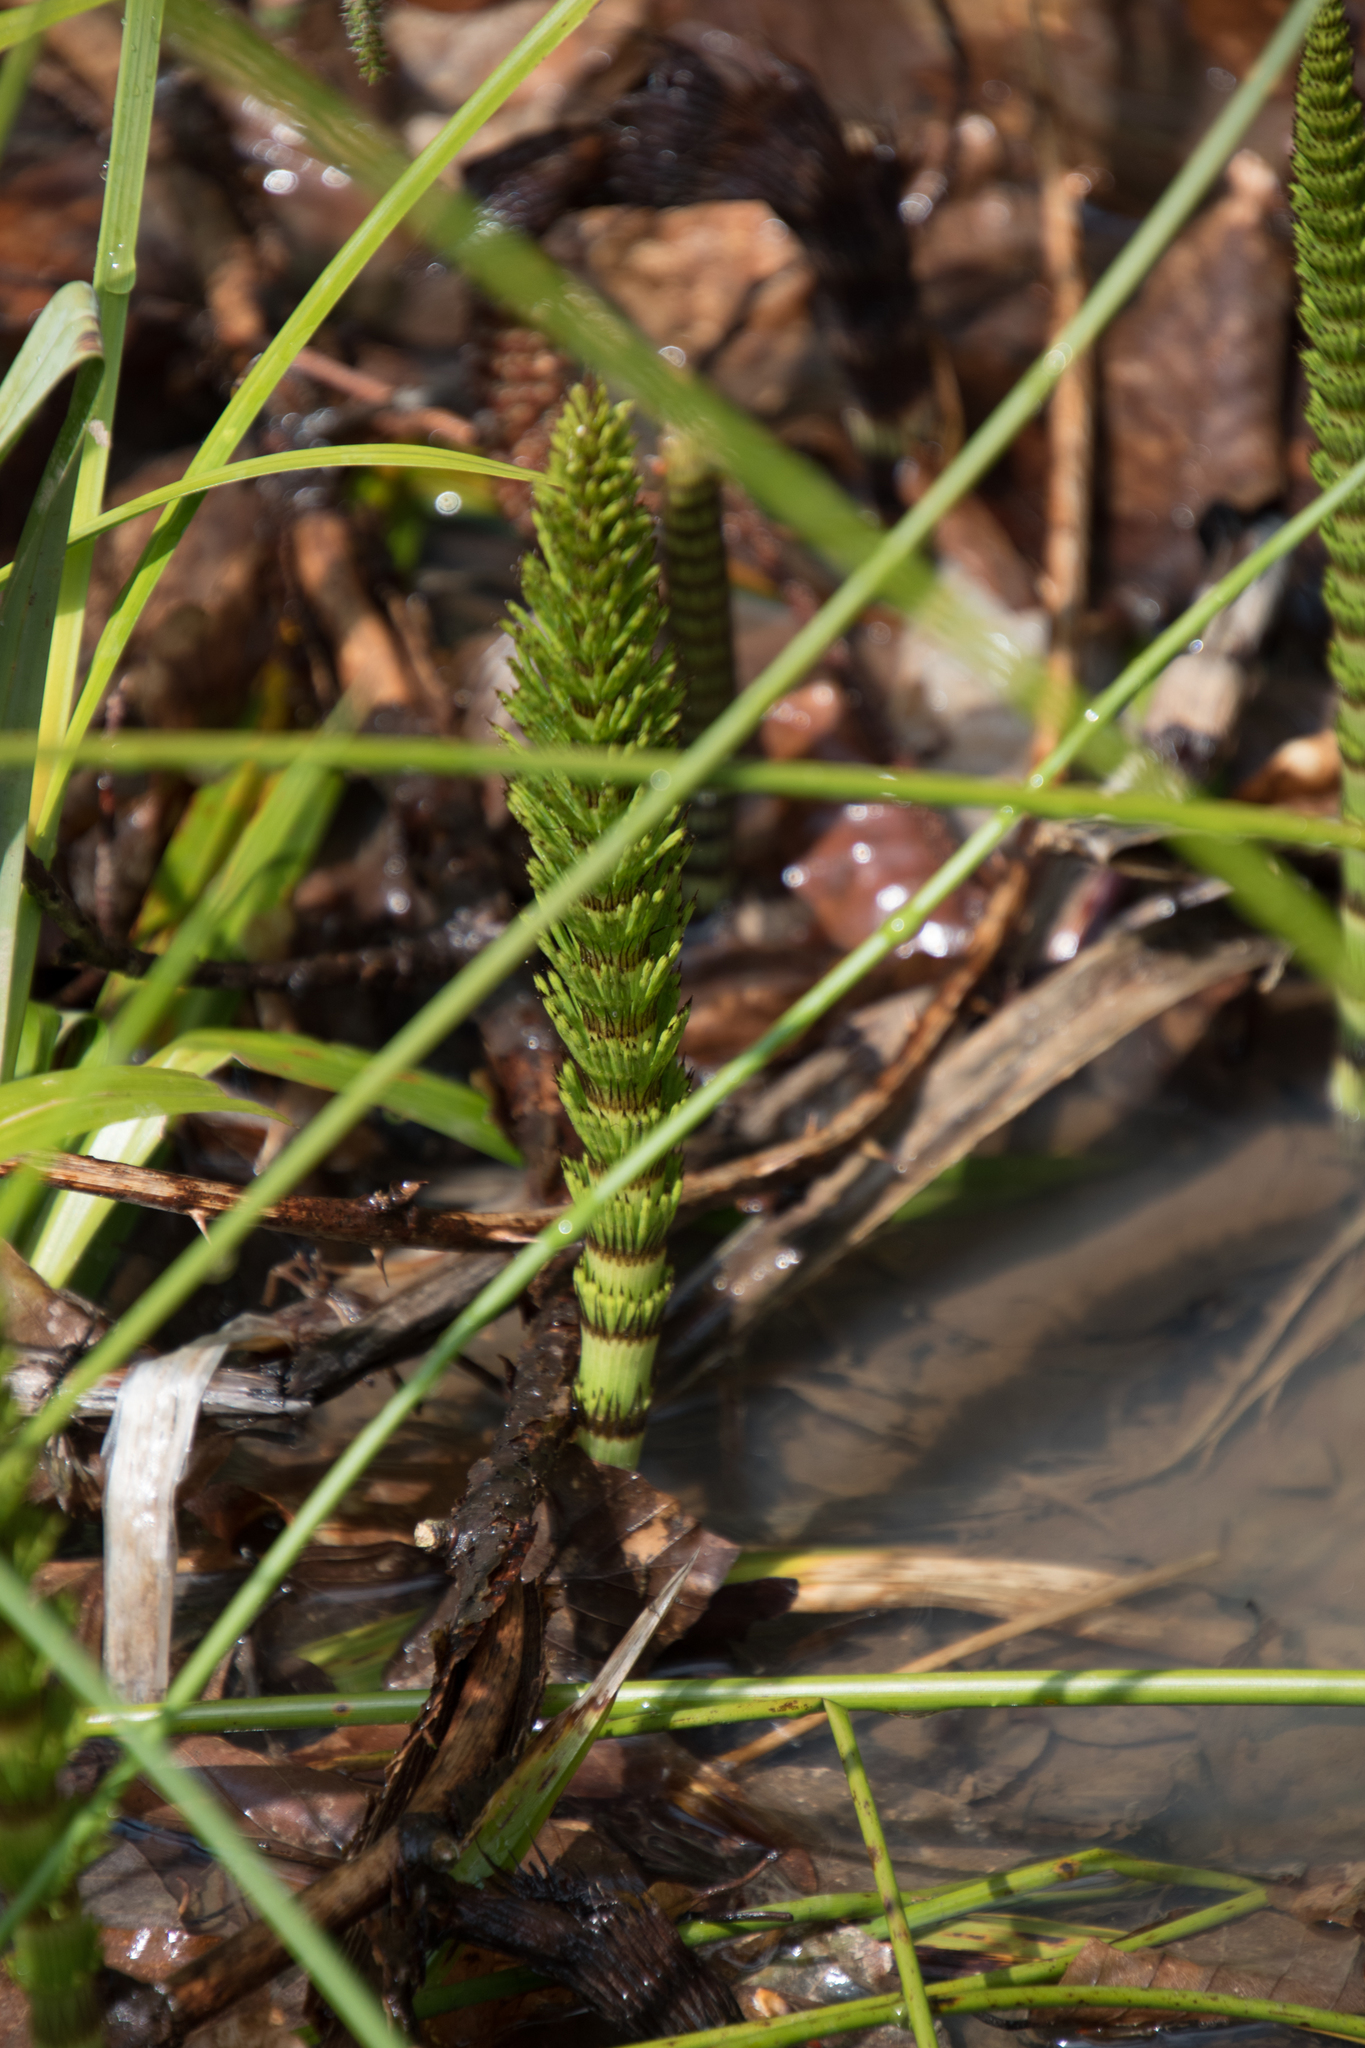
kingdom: Plantae
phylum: Tracheophyta
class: Polypodiopsida
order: Equisetales
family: Equisetaceae
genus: Equisetum
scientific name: Equisetum telmateia
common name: Great horsetail
